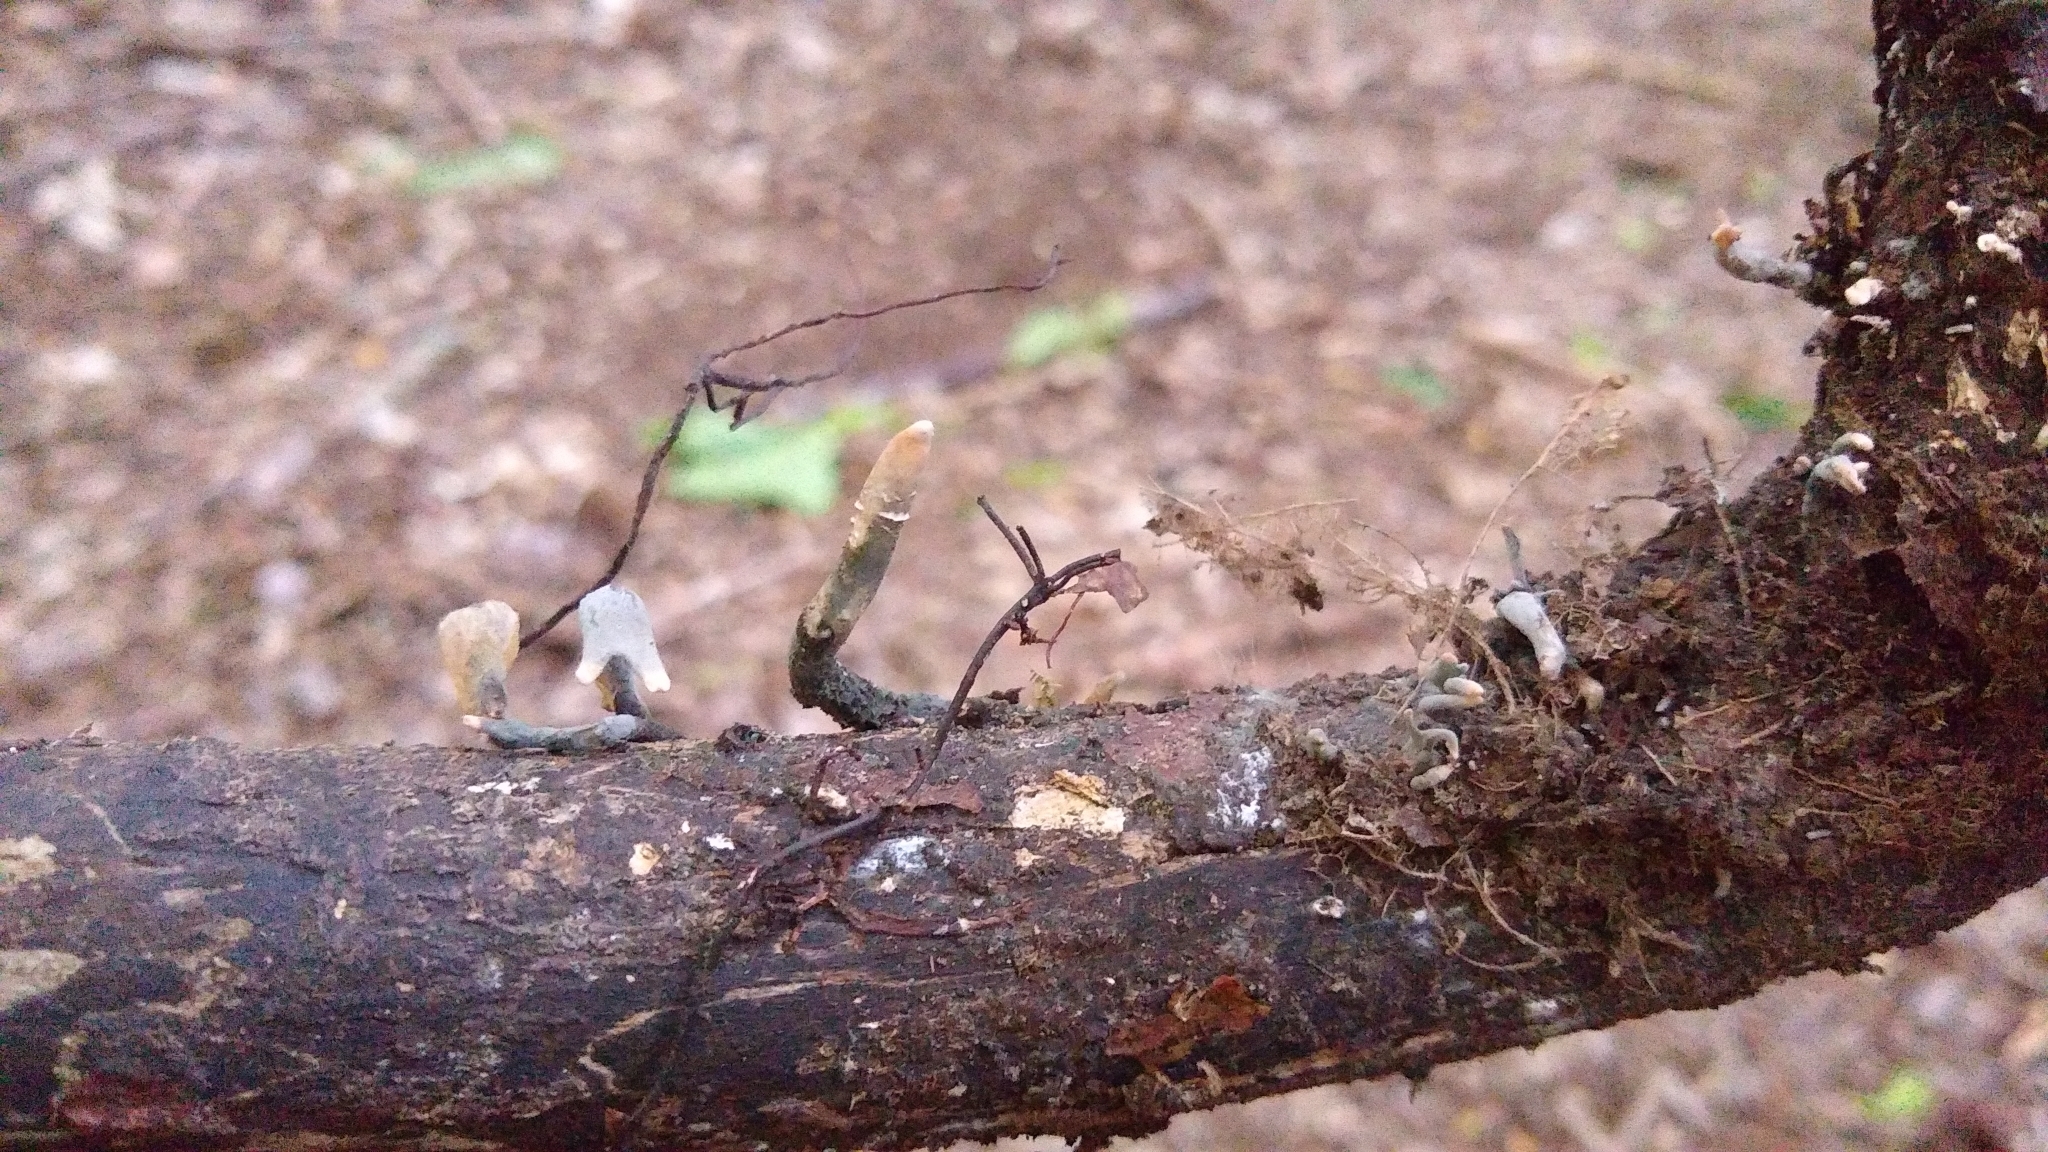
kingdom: Fungi
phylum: Ascomycota
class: Sordariomycetes
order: Xylariales
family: Xylariaceae
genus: Xylaria
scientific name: Xylaria hypoxylon
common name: Candle-snuff fungus
